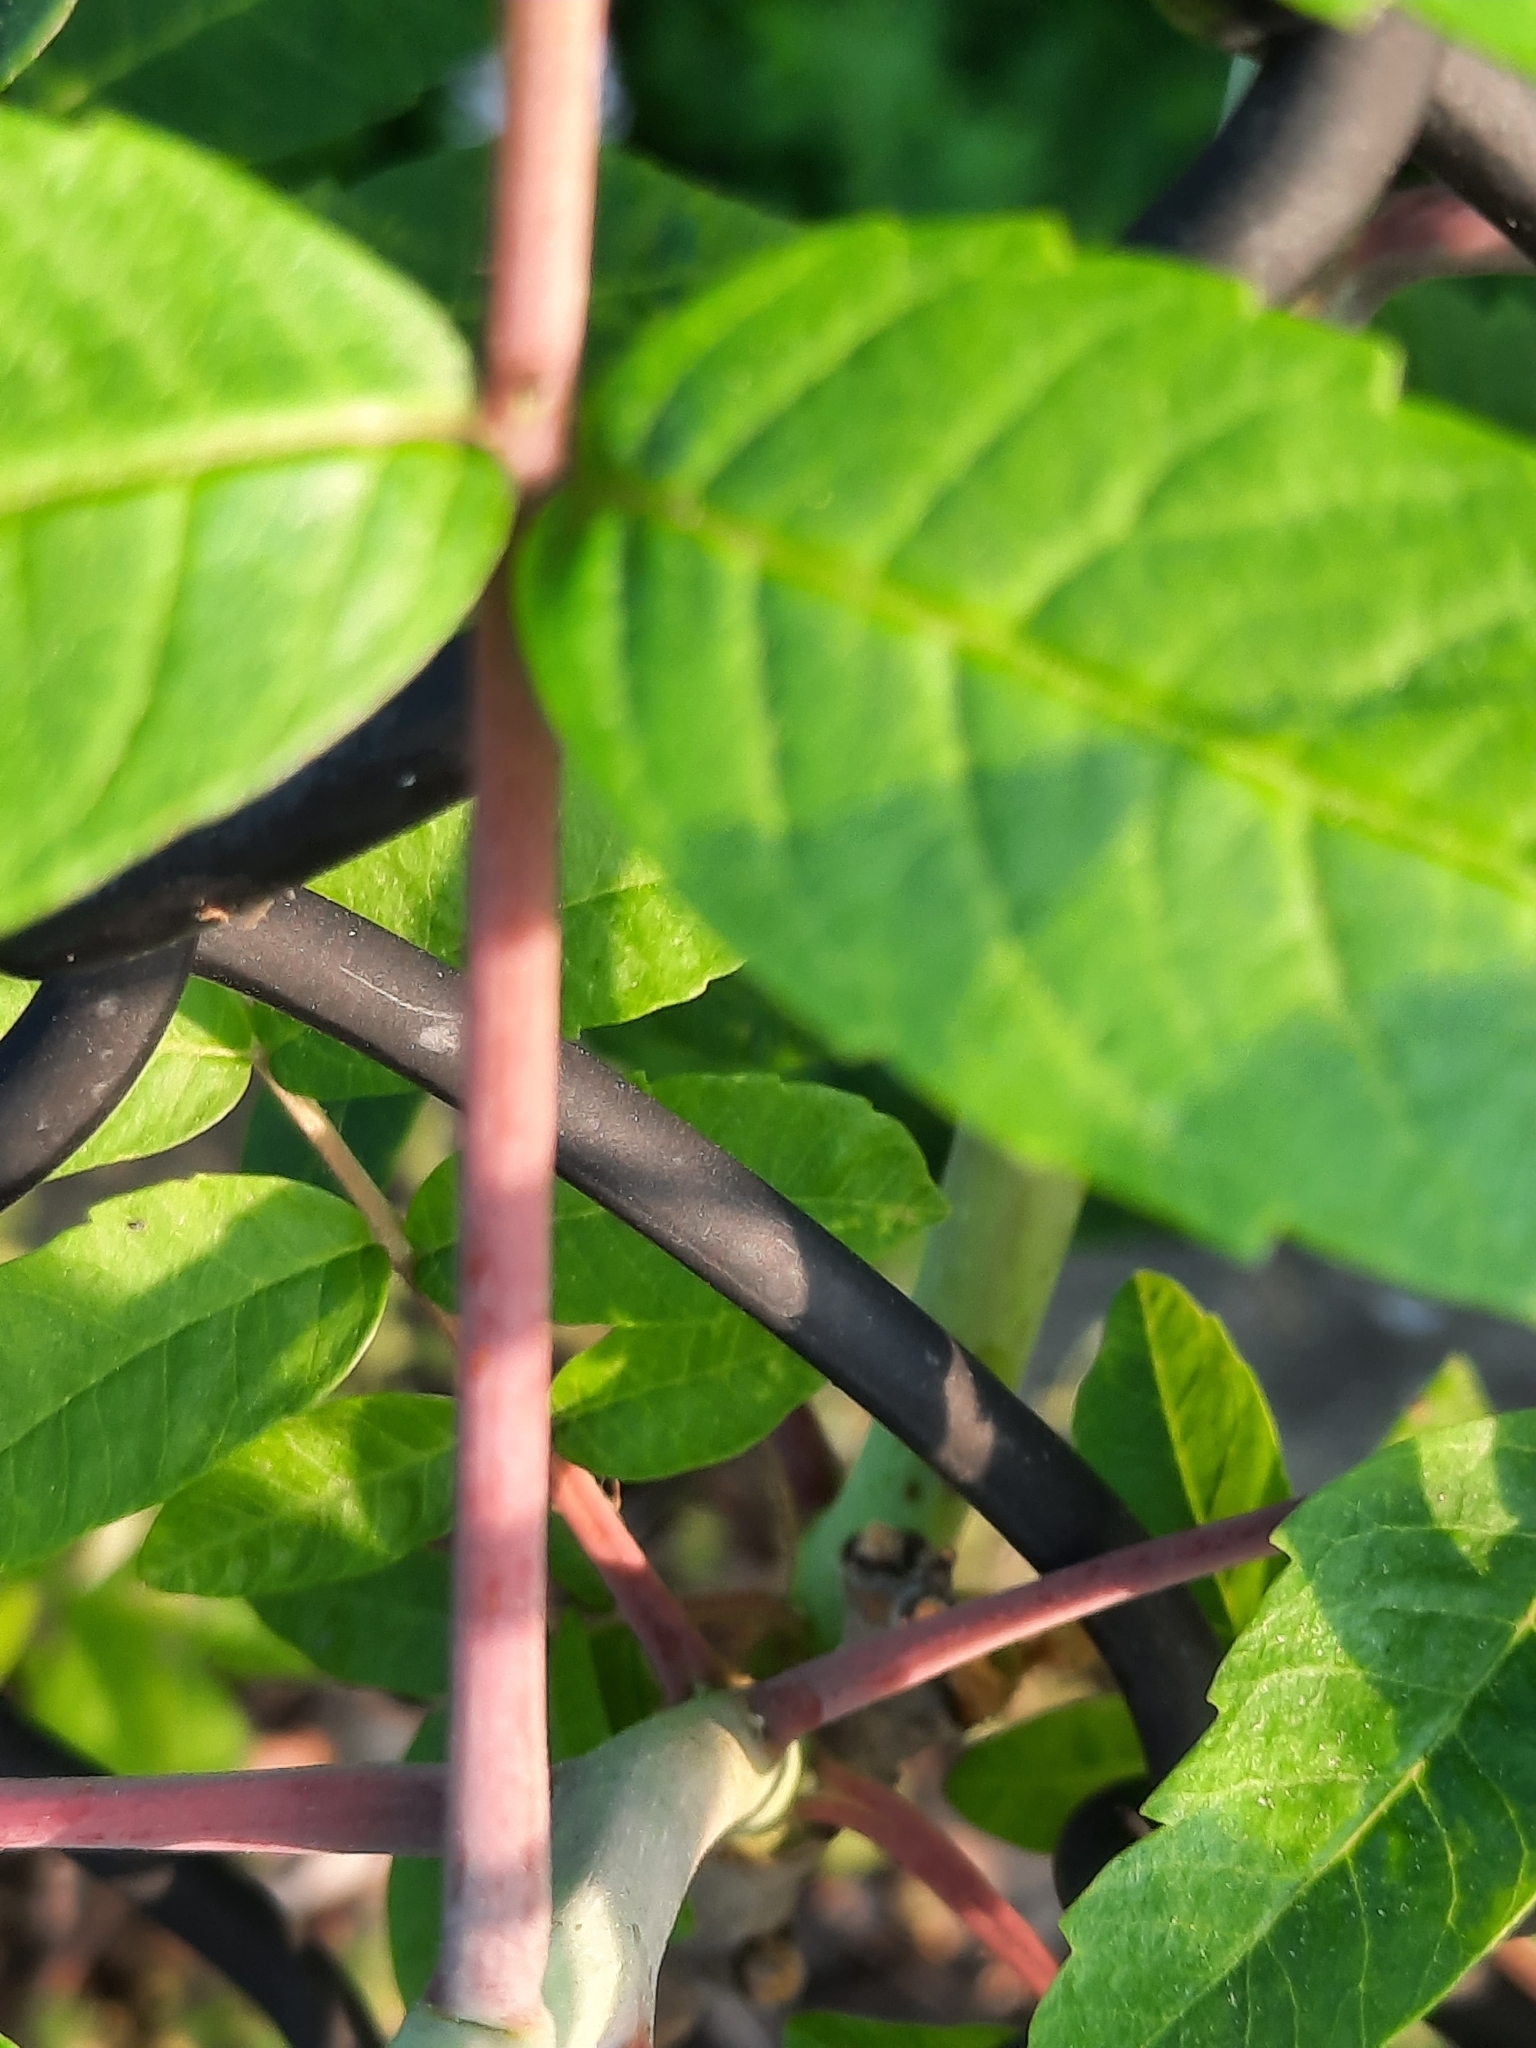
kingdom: Plantae
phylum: Tracheophyta
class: Magnoliopsida
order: Sapindales
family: Anacardiaceae
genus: Rhus
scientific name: Rhus glabra
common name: Scarlet sumac
